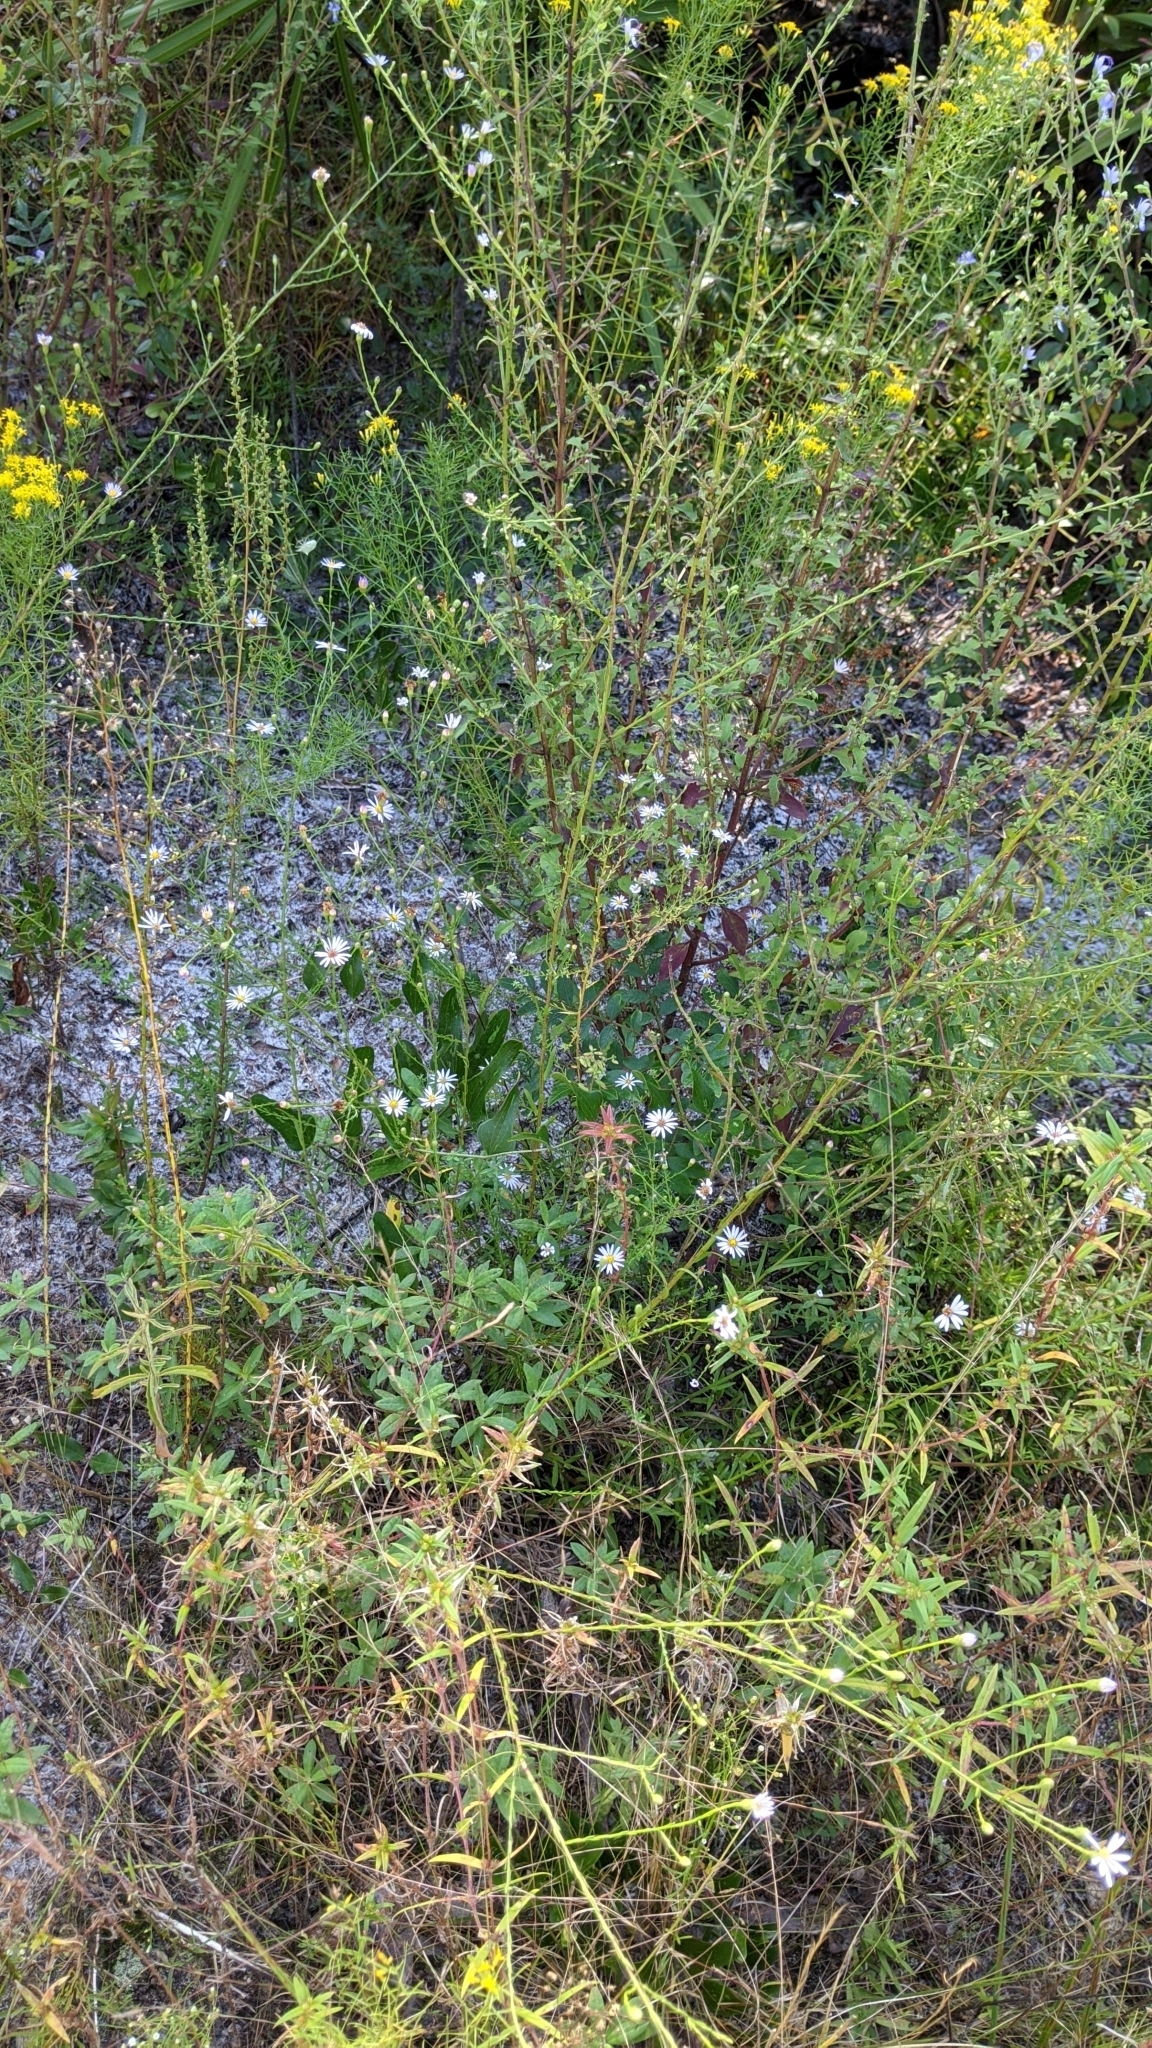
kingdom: Plantae
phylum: Tracheophyta
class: Magnoliopsida
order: Asterales
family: Asteraceae
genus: Symphyotrichum
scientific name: Symphyotrichum dumosum
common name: Bushy aster
